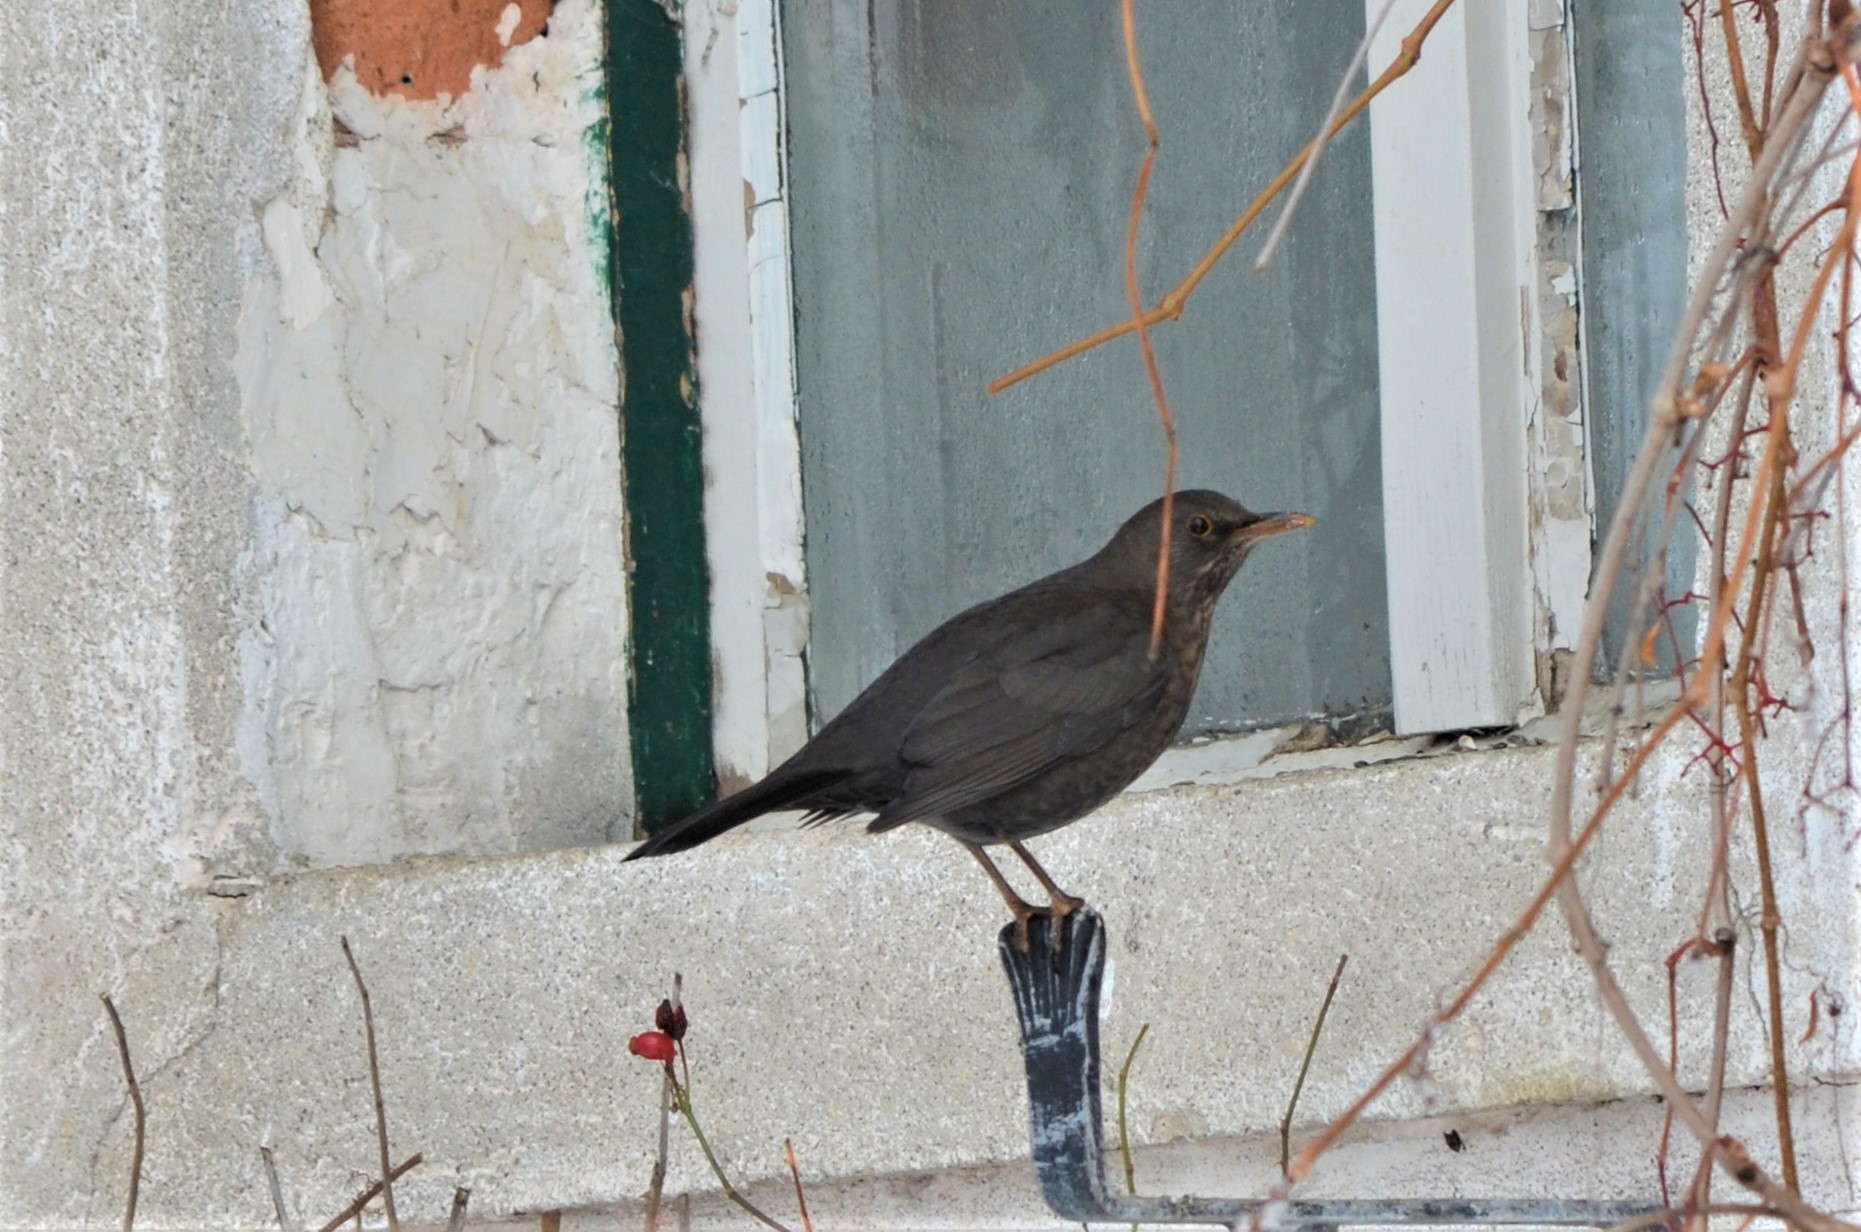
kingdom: Animalia
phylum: Chordata
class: Aves
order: Passeriformes
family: Turdidae
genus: Turdus
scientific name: Turdus merula
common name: Common blackbird
